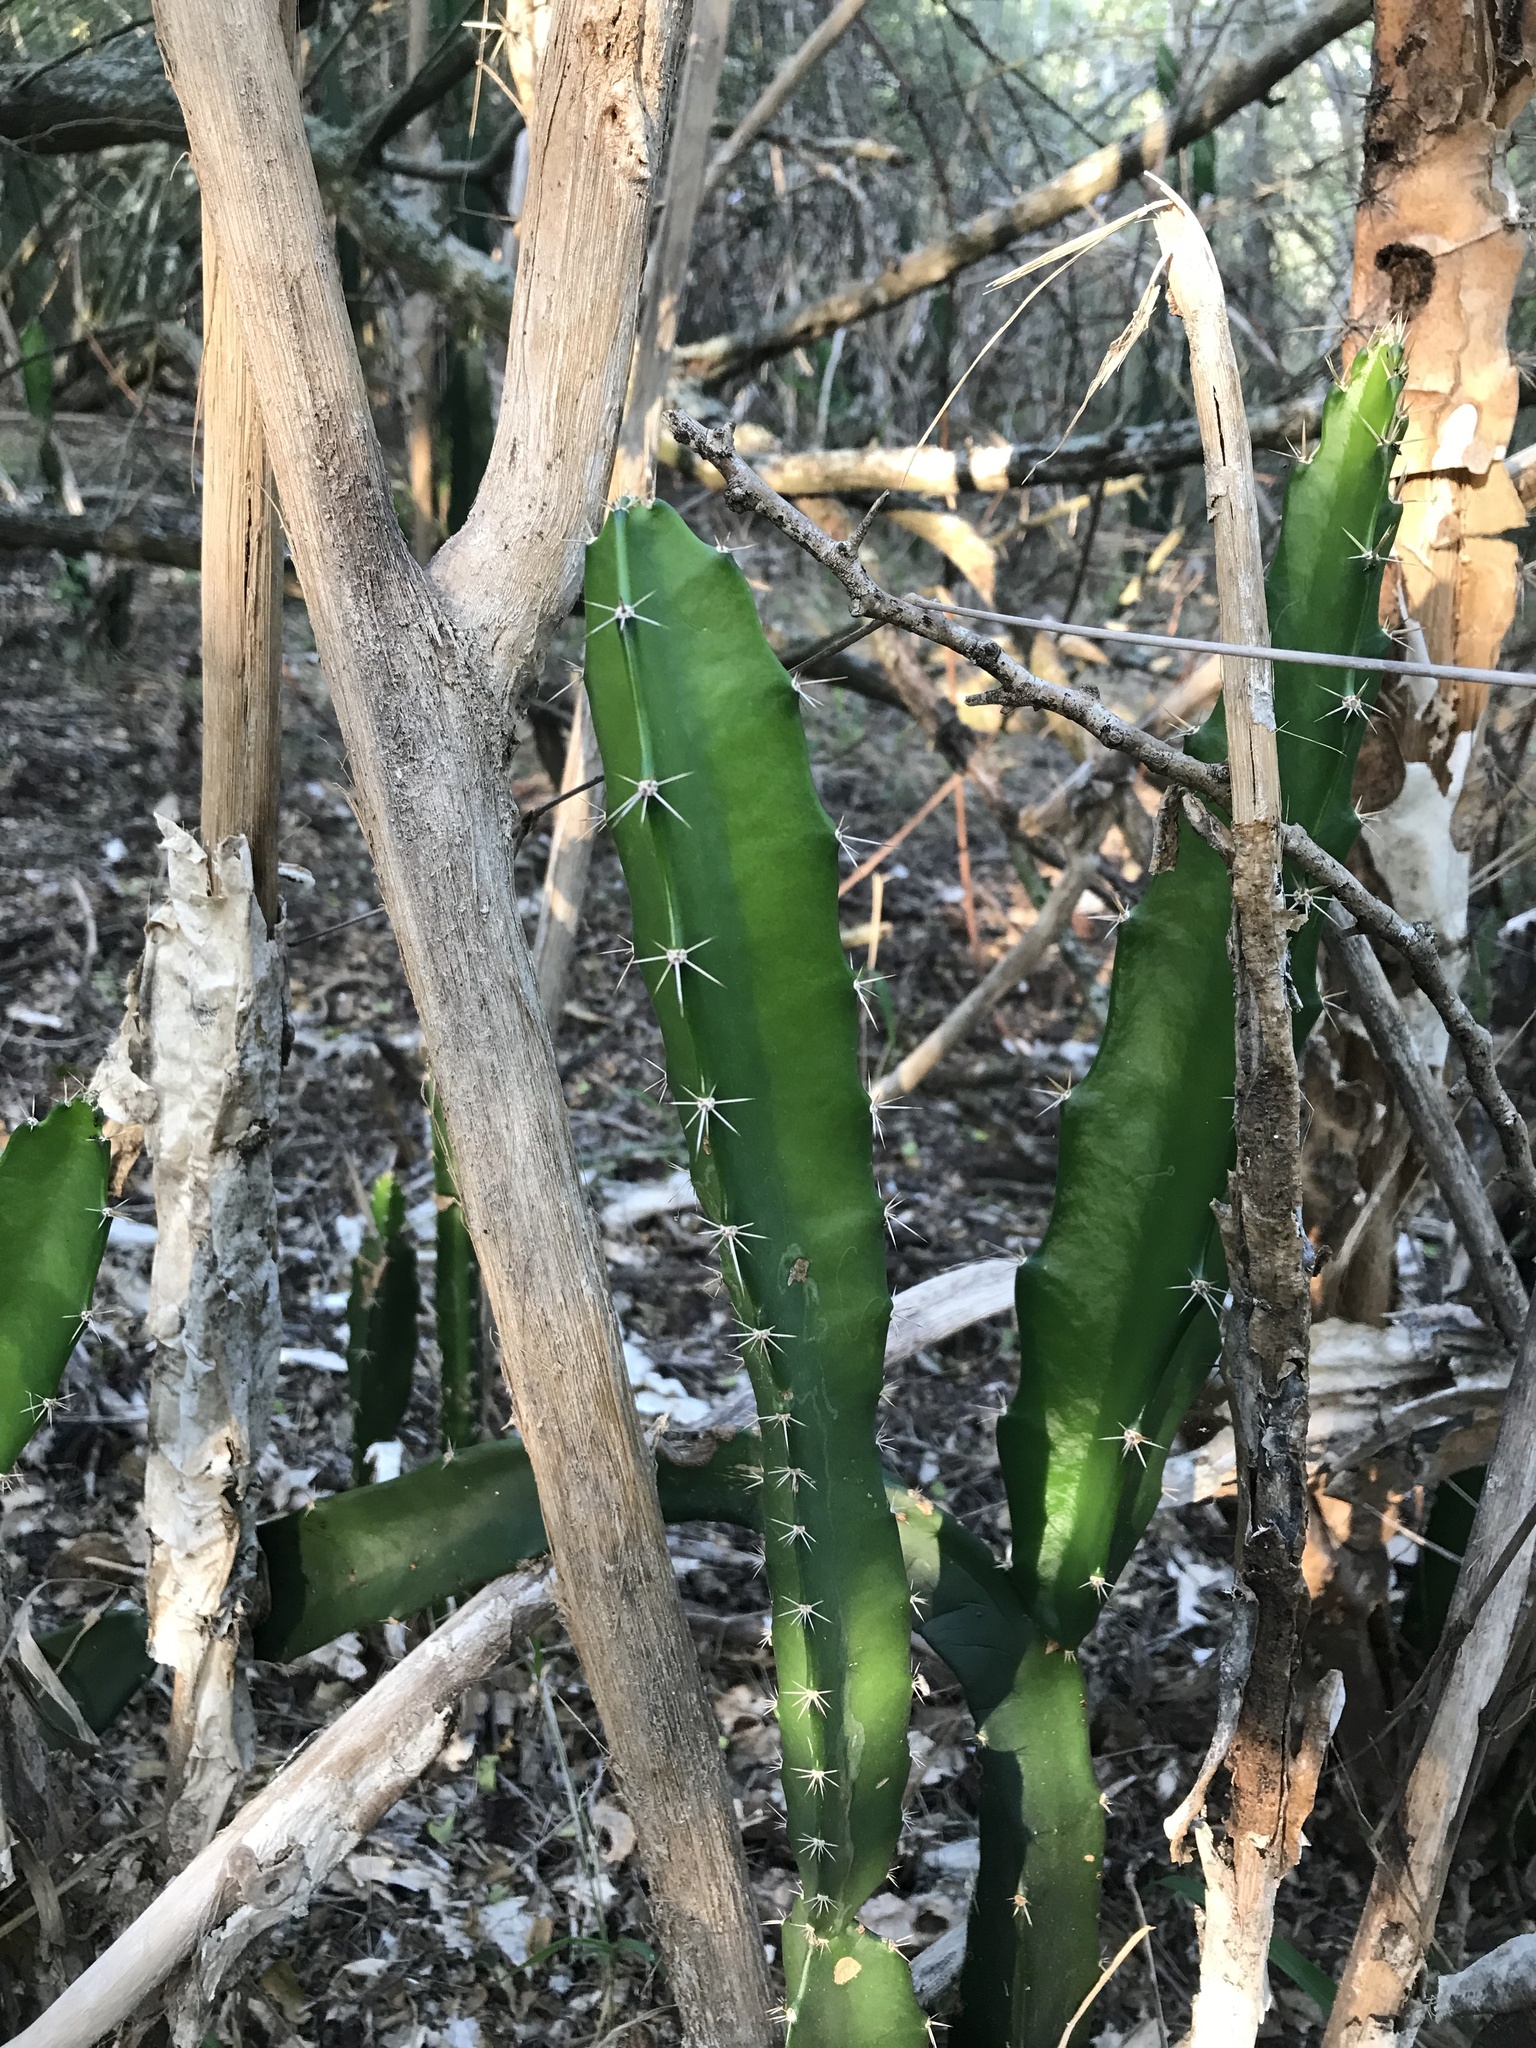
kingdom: Plantae
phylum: Tracheophyta
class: Magnoliopsida
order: Caryophyllales
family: Cactaceae
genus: Acanthocereus
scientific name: Acanthocereus tetragonus
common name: Triangle cactus
